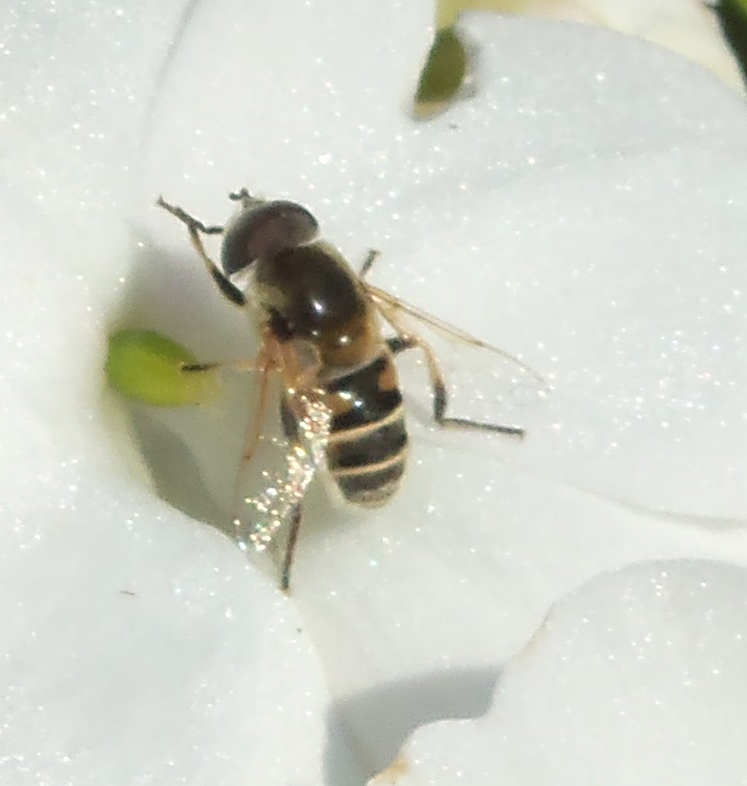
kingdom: Animalia
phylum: Arthropoda
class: Insecta
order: Diptera
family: Syrphidae
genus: Eristalis
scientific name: Eristalis stipator
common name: Yellow-shouldered drone fly
